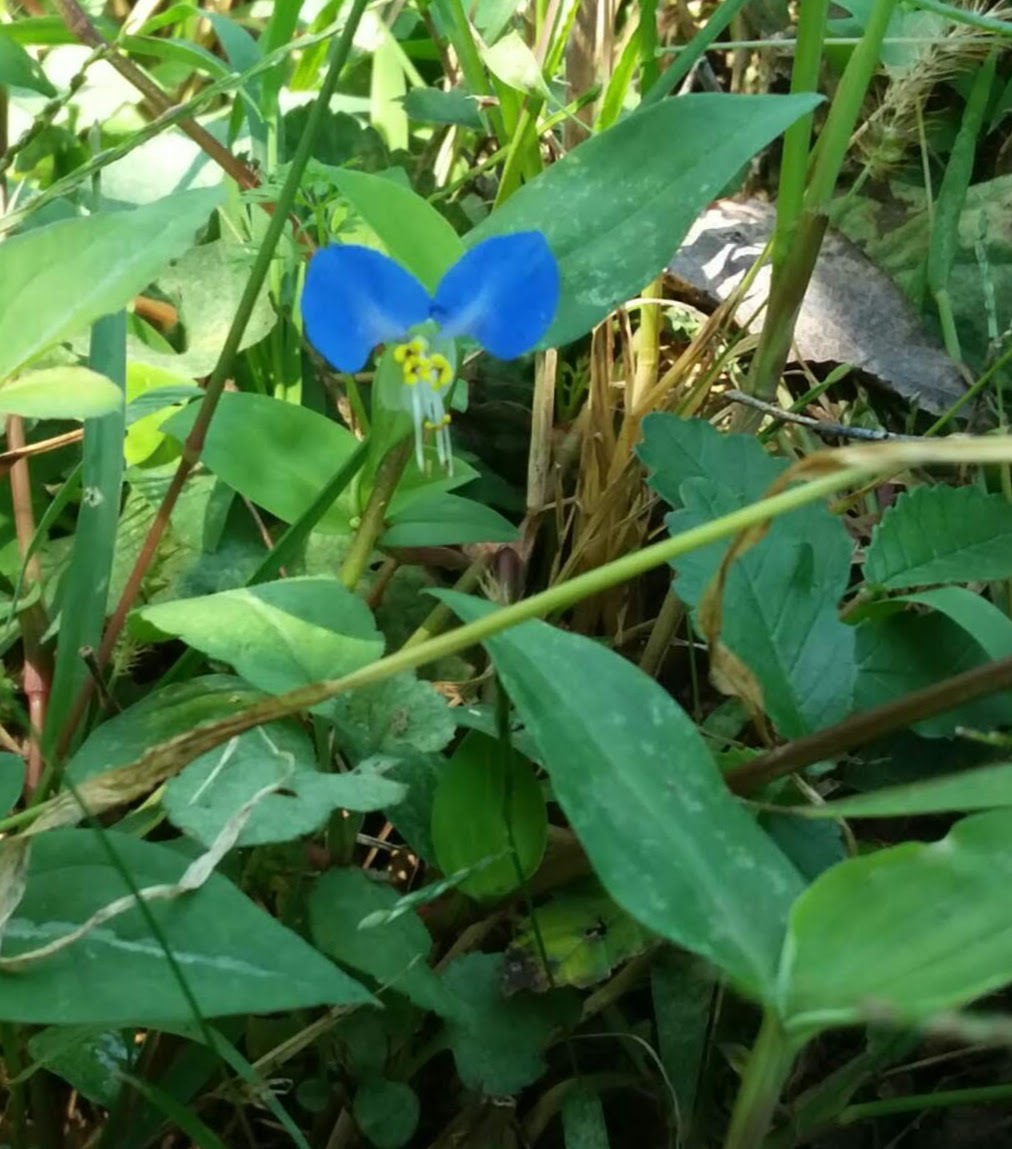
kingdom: Plantae
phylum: Tracheophyta
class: Liliopsida
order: Commelinales
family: Commelinaceae
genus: Commelina
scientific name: Commelina communis
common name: Asiatic dayflower
